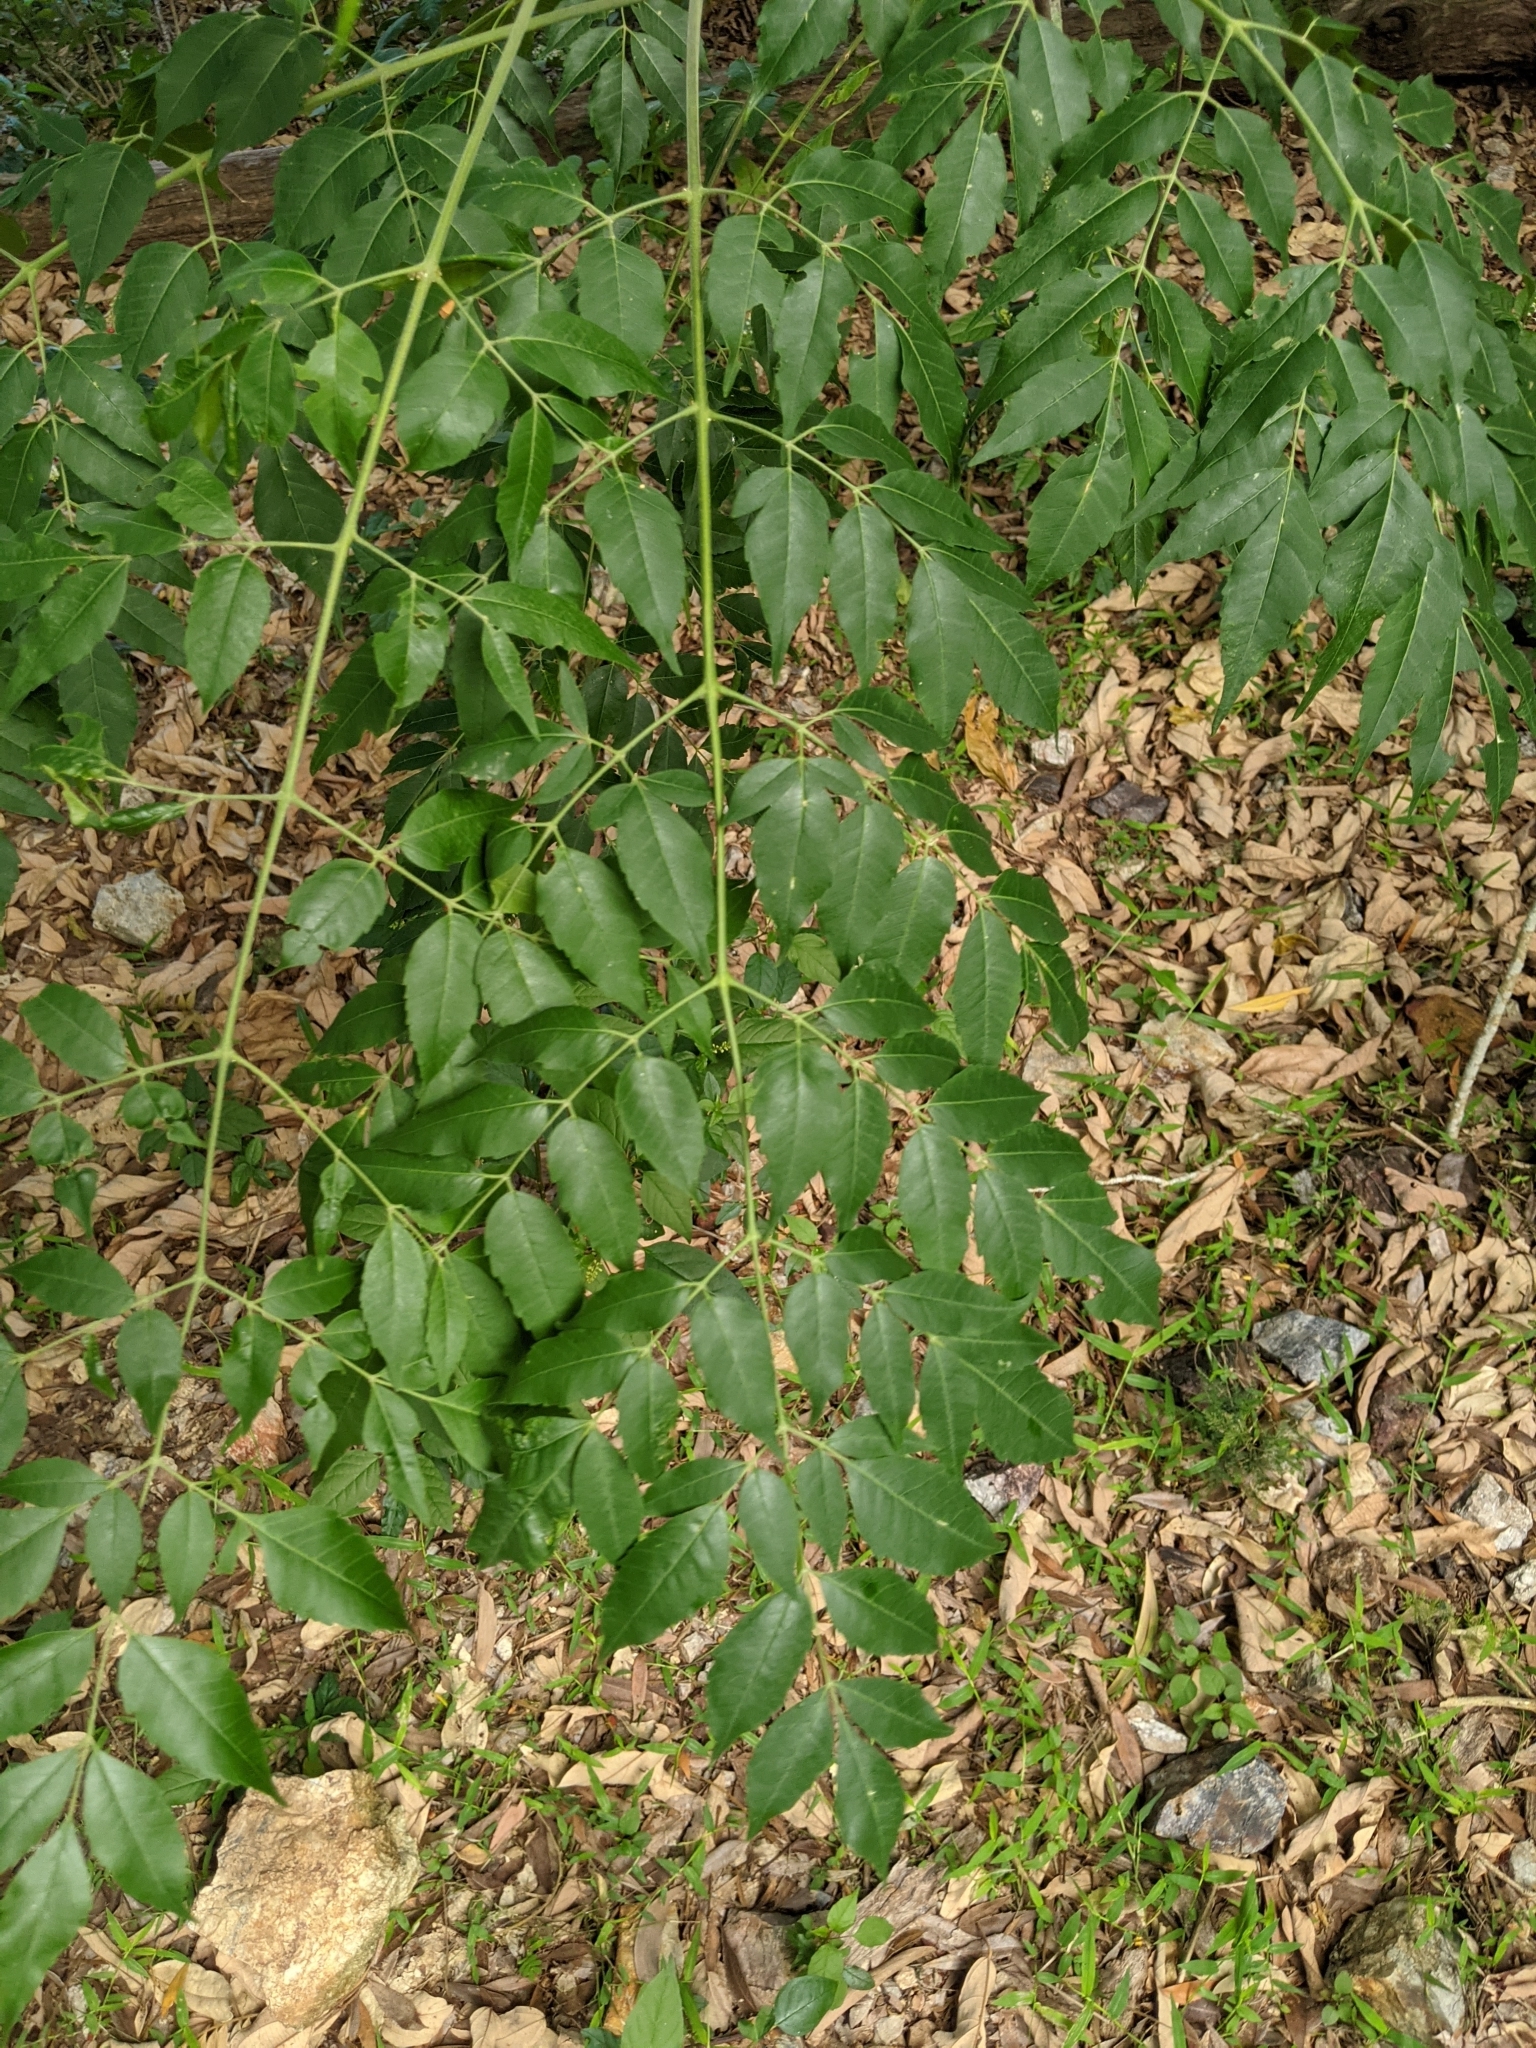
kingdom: Plantae
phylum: Tracheophyta
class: Magnoliopsida
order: Sapindales
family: Meliaceae
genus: Melia
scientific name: Melia azedarach
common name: Chinaberrytree
